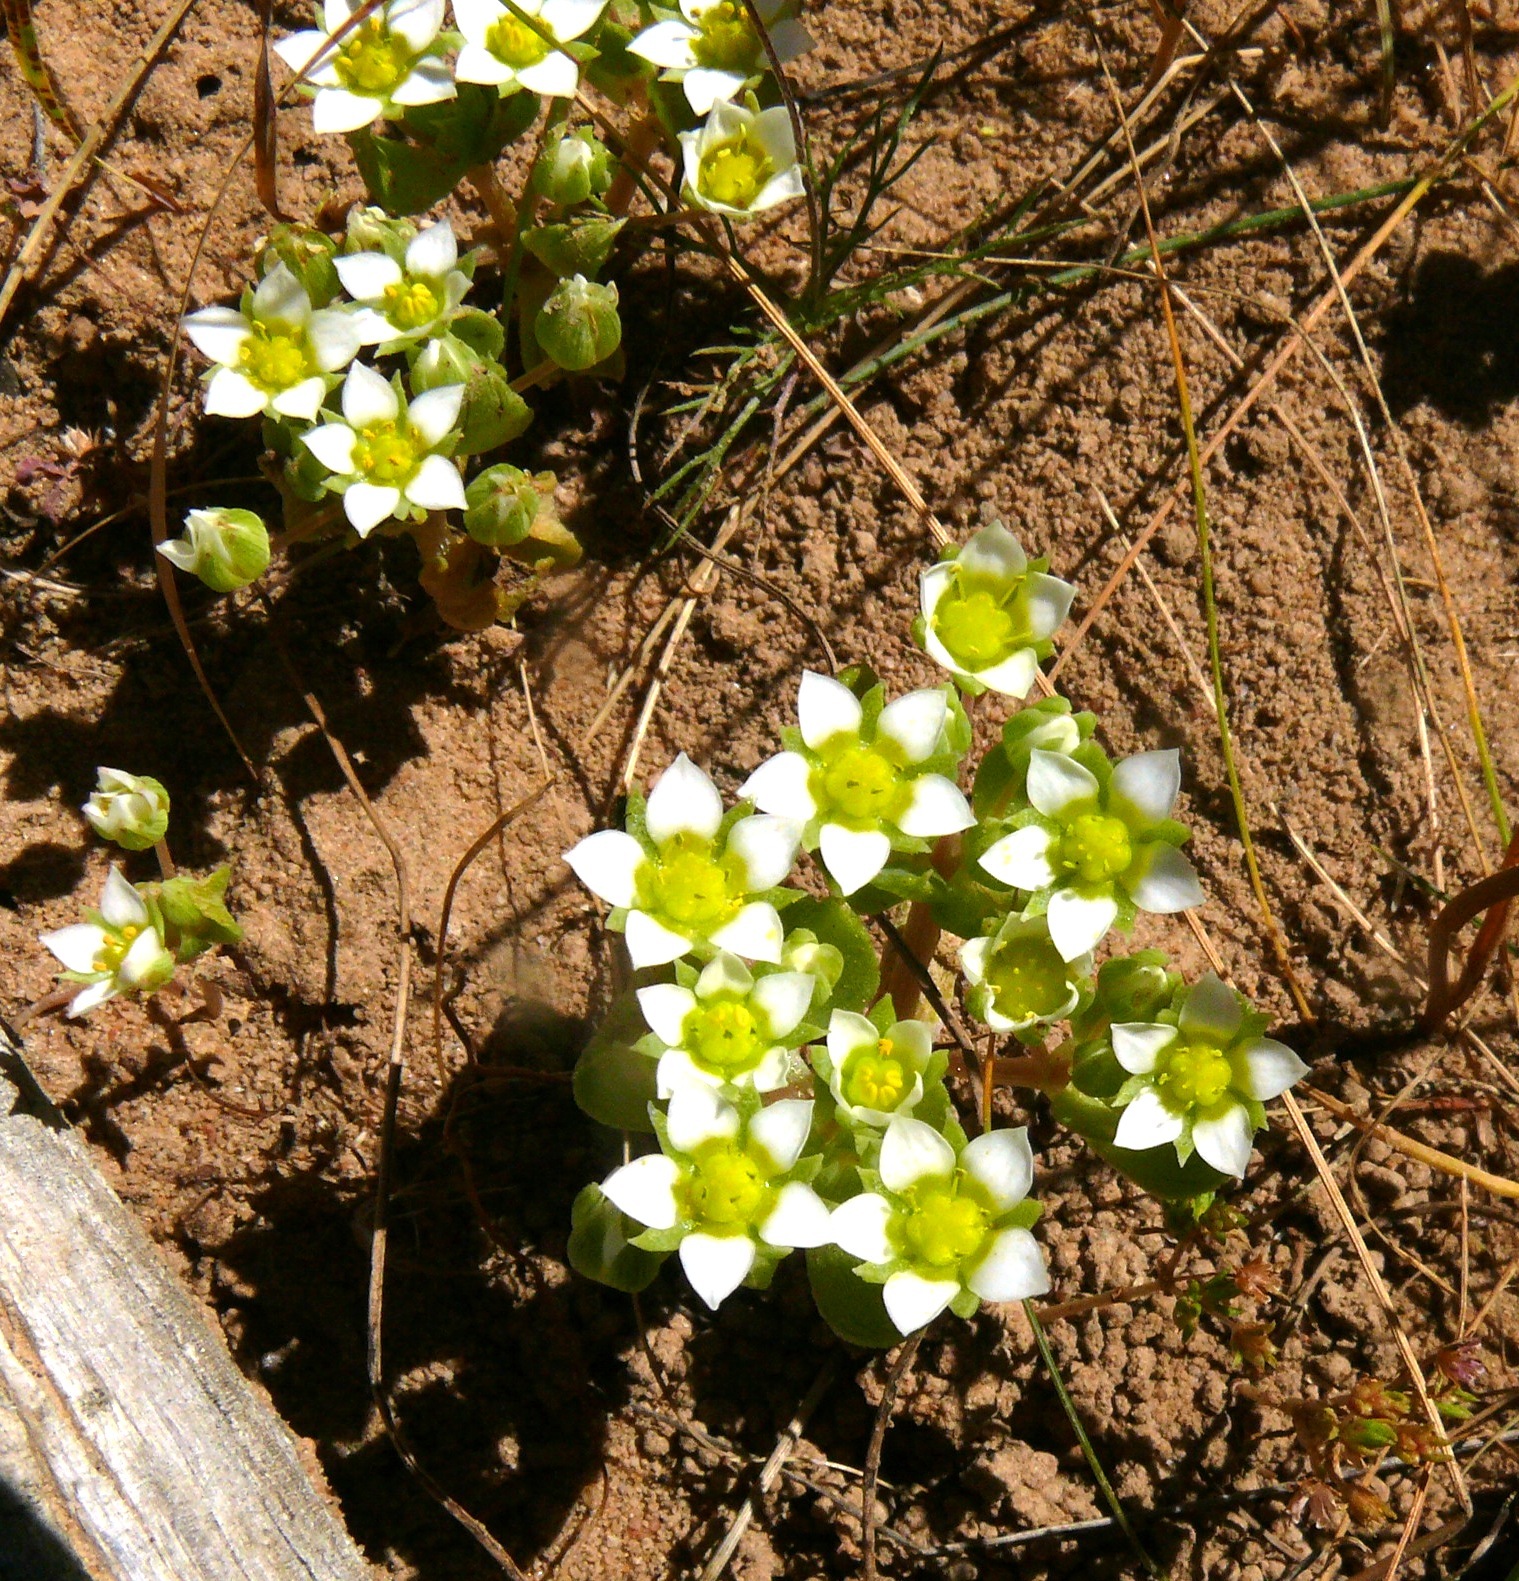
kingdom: Plantae
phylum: Tracheophyta
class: Magnoliopsida
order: Saxifragales
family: Crassulaceae
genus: Crassula
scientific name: Crassula pellucida
